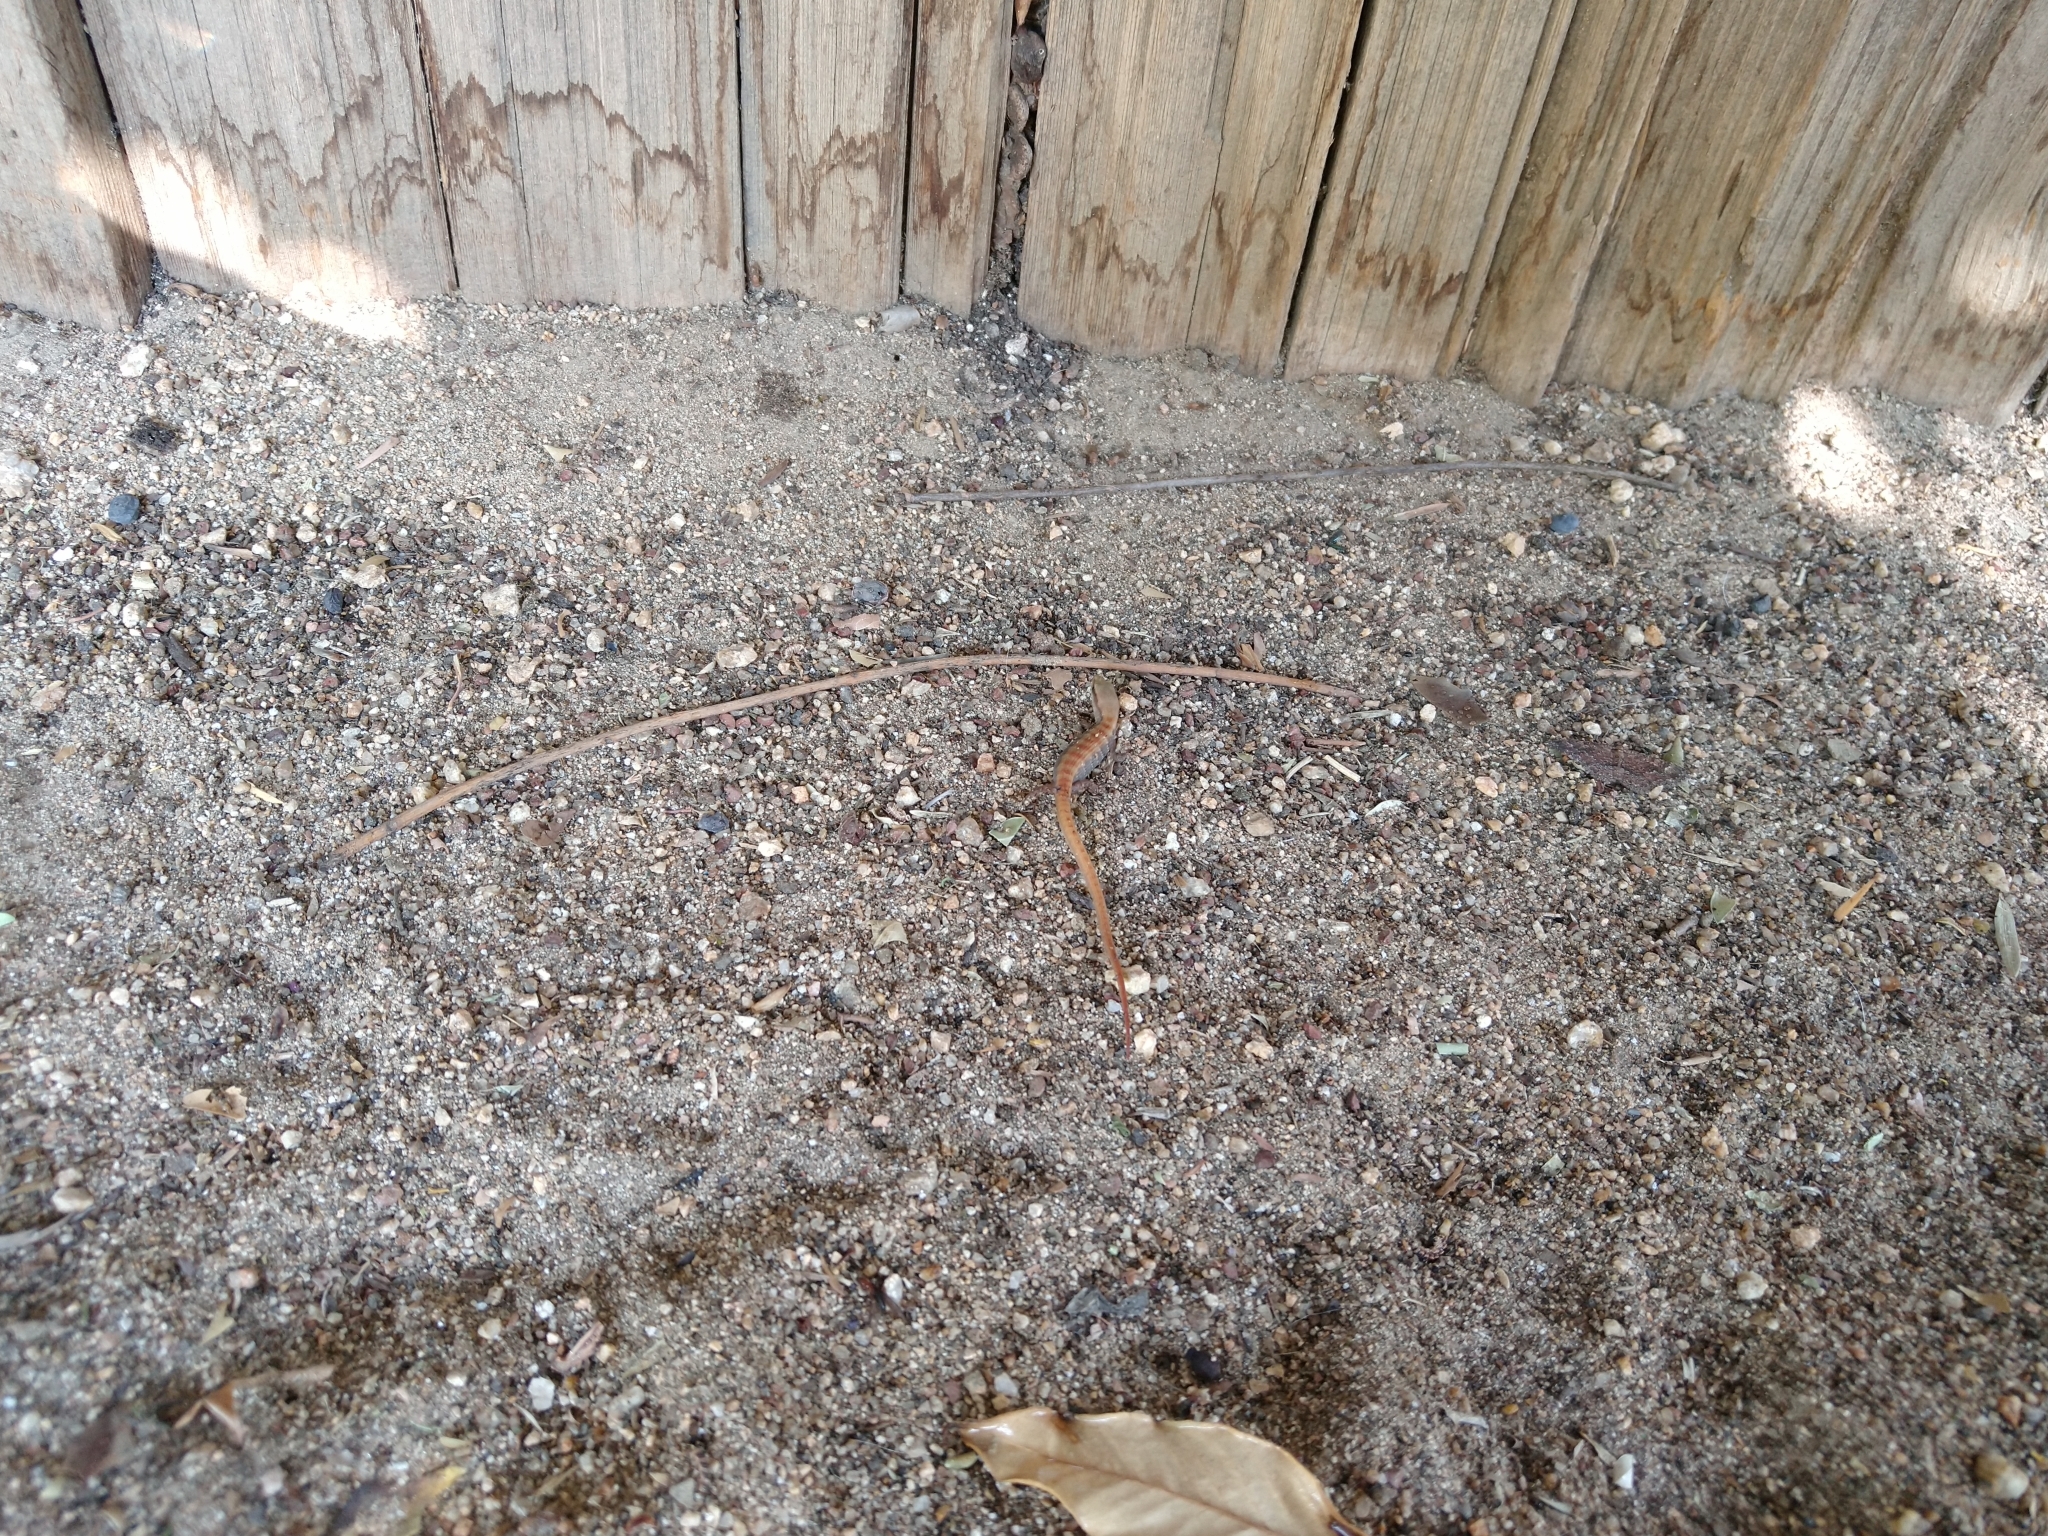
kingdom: Animalia
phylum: Chordata
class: Squamata
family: Anguidae
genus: Elgaria
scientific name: Elgaria multicarinata
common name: Southern alligator lizard
